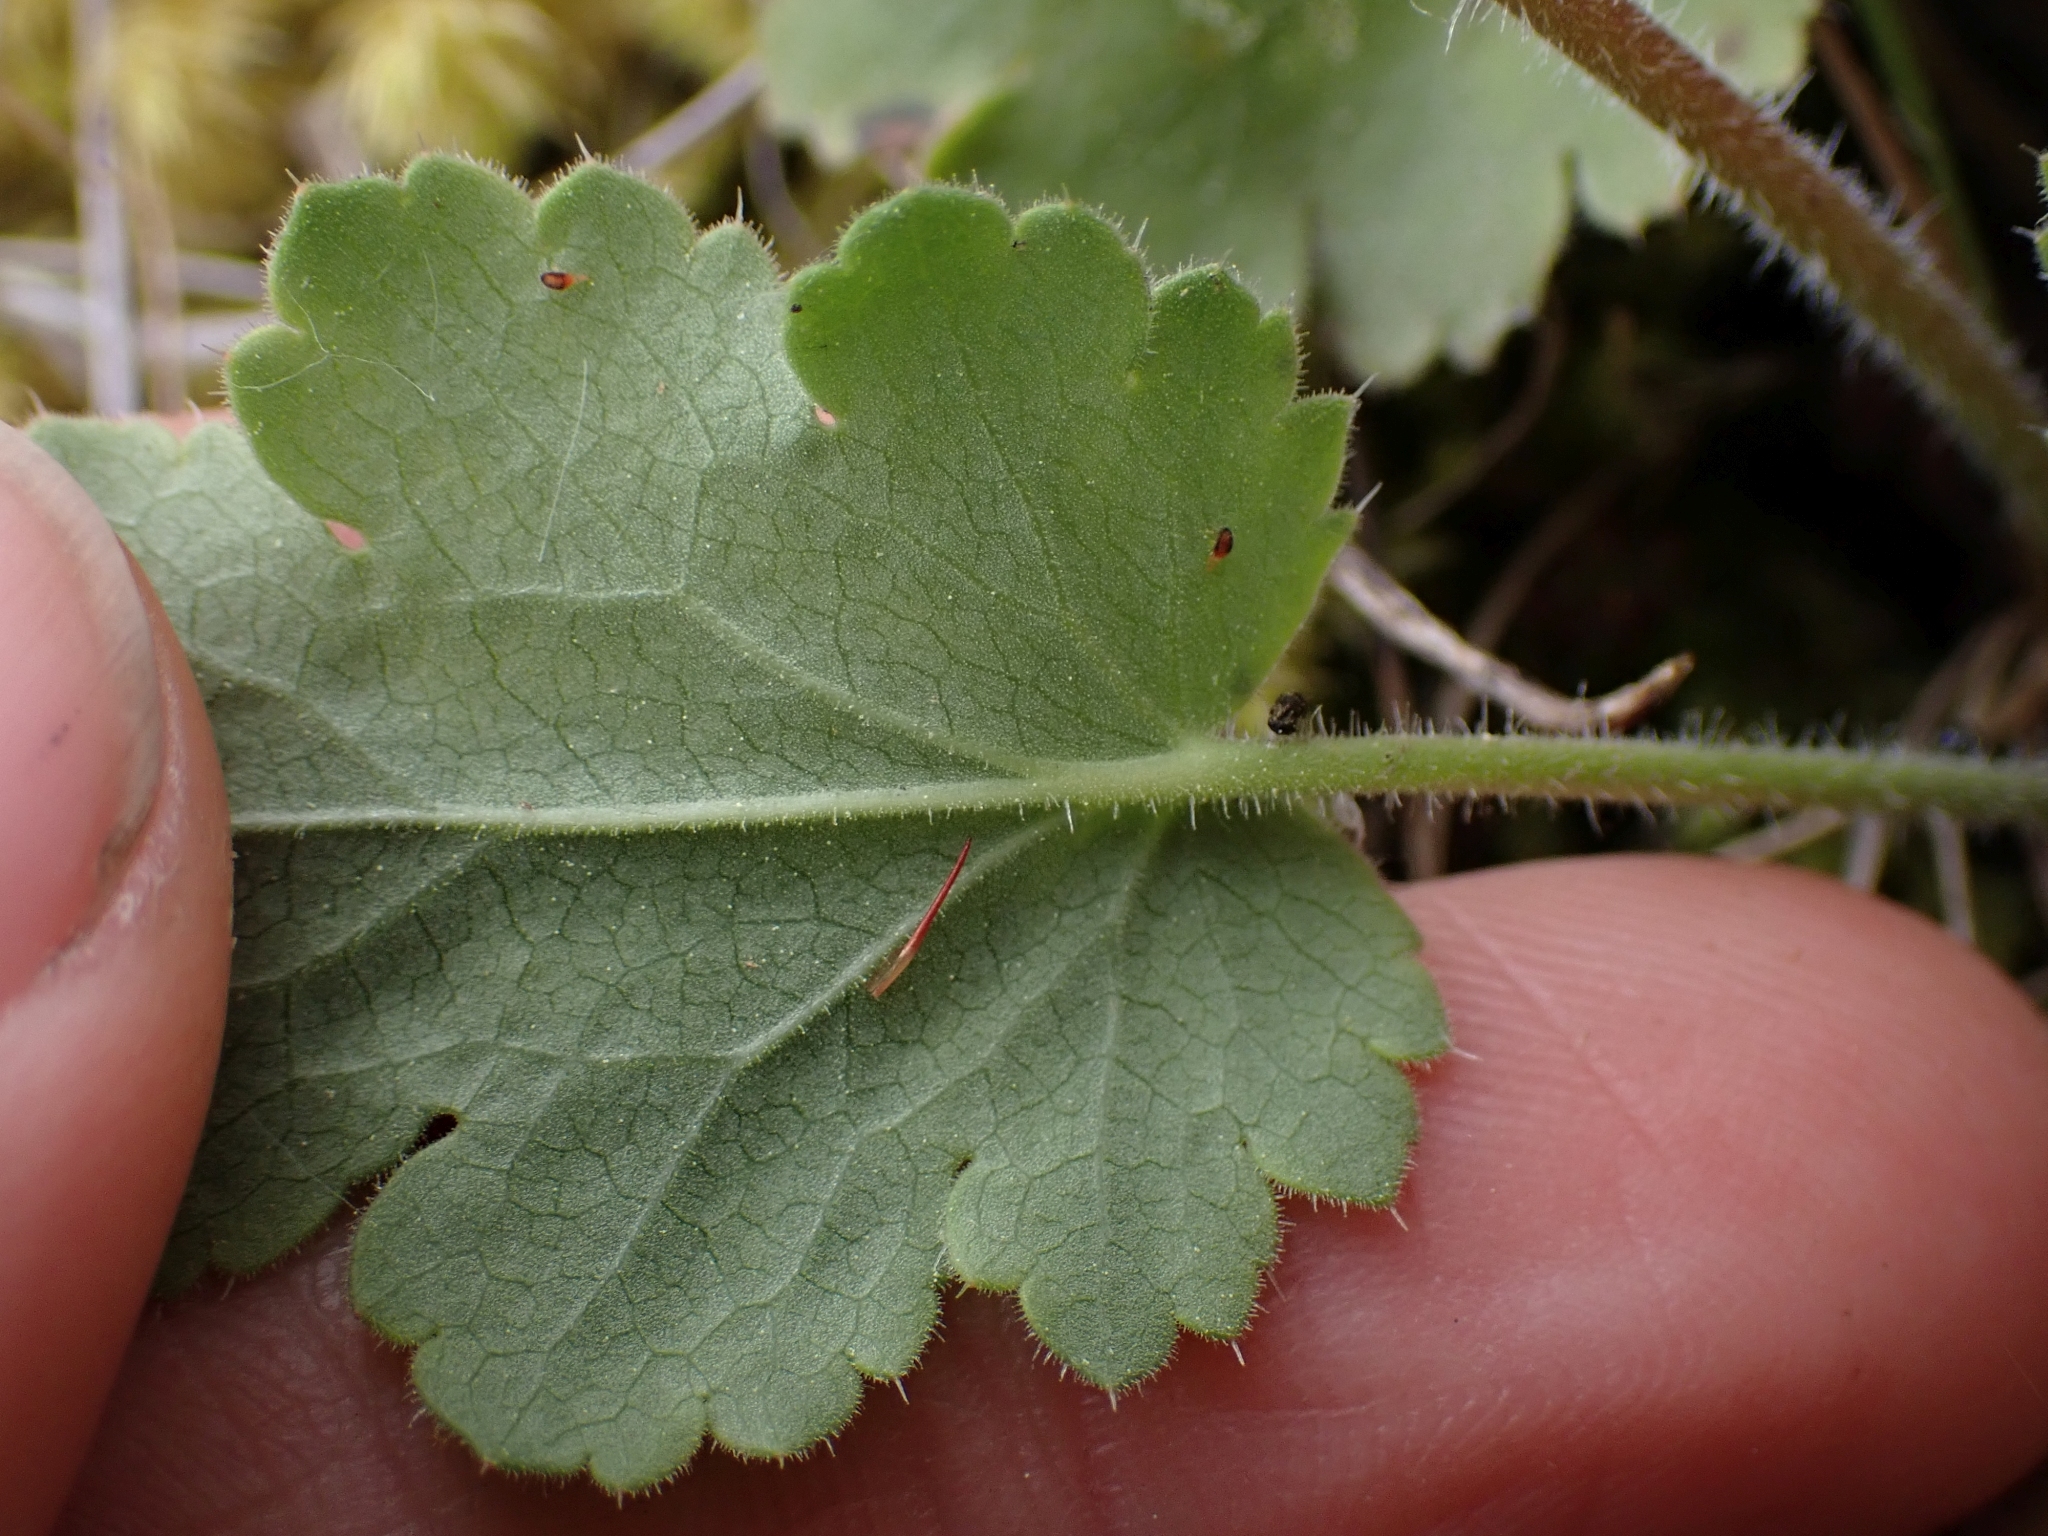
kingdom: Plantae
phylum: Tracheophyta
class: Magnoliopsida
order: Saxifragales
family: Saxifragaceae
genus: Heuchera
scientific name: Heuchera cylindrica
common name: Mat alumroot
